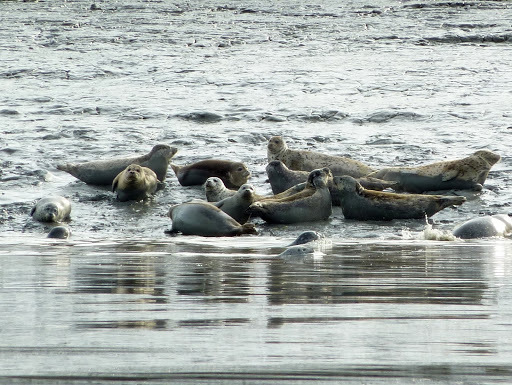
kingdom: Animalia
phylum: Chordata
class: Mammalia
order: Carnivora
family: Phocidae
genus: Phoca
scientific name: Phoca vitulina
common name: Harbor seal
